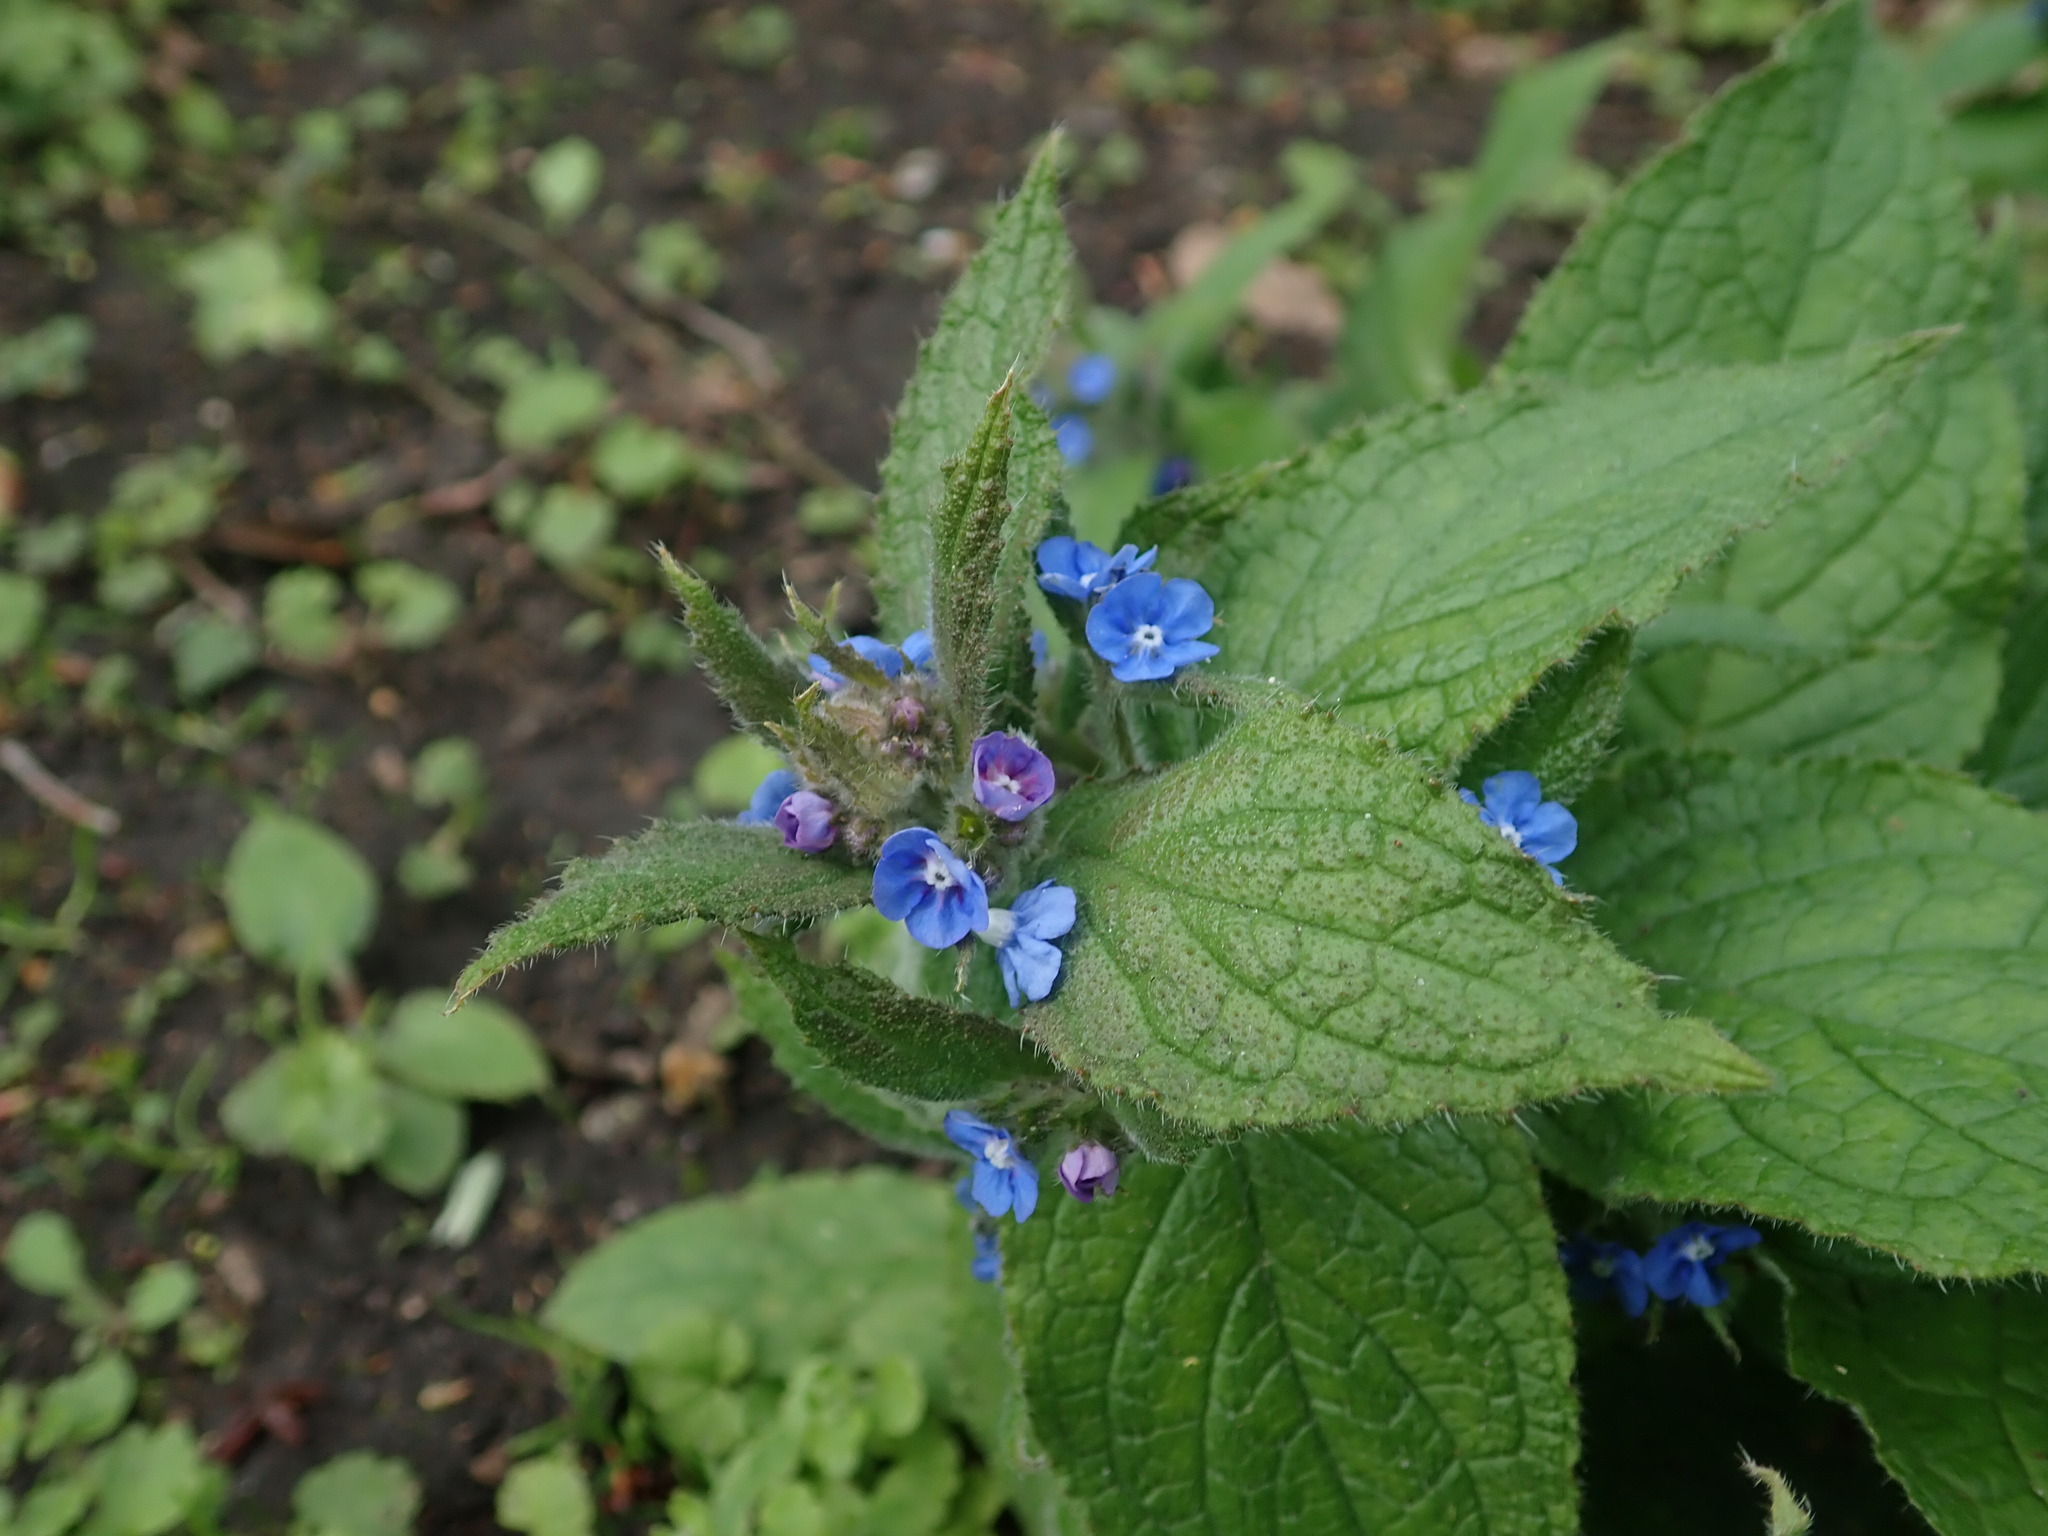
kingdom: Plantae
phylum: Tracheophyta
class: Magnoliopsida
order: Boraginales
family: Boraginaceae
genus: Pentaglottis
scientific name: Pentaglottis sempervirens
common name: Green alkanet
